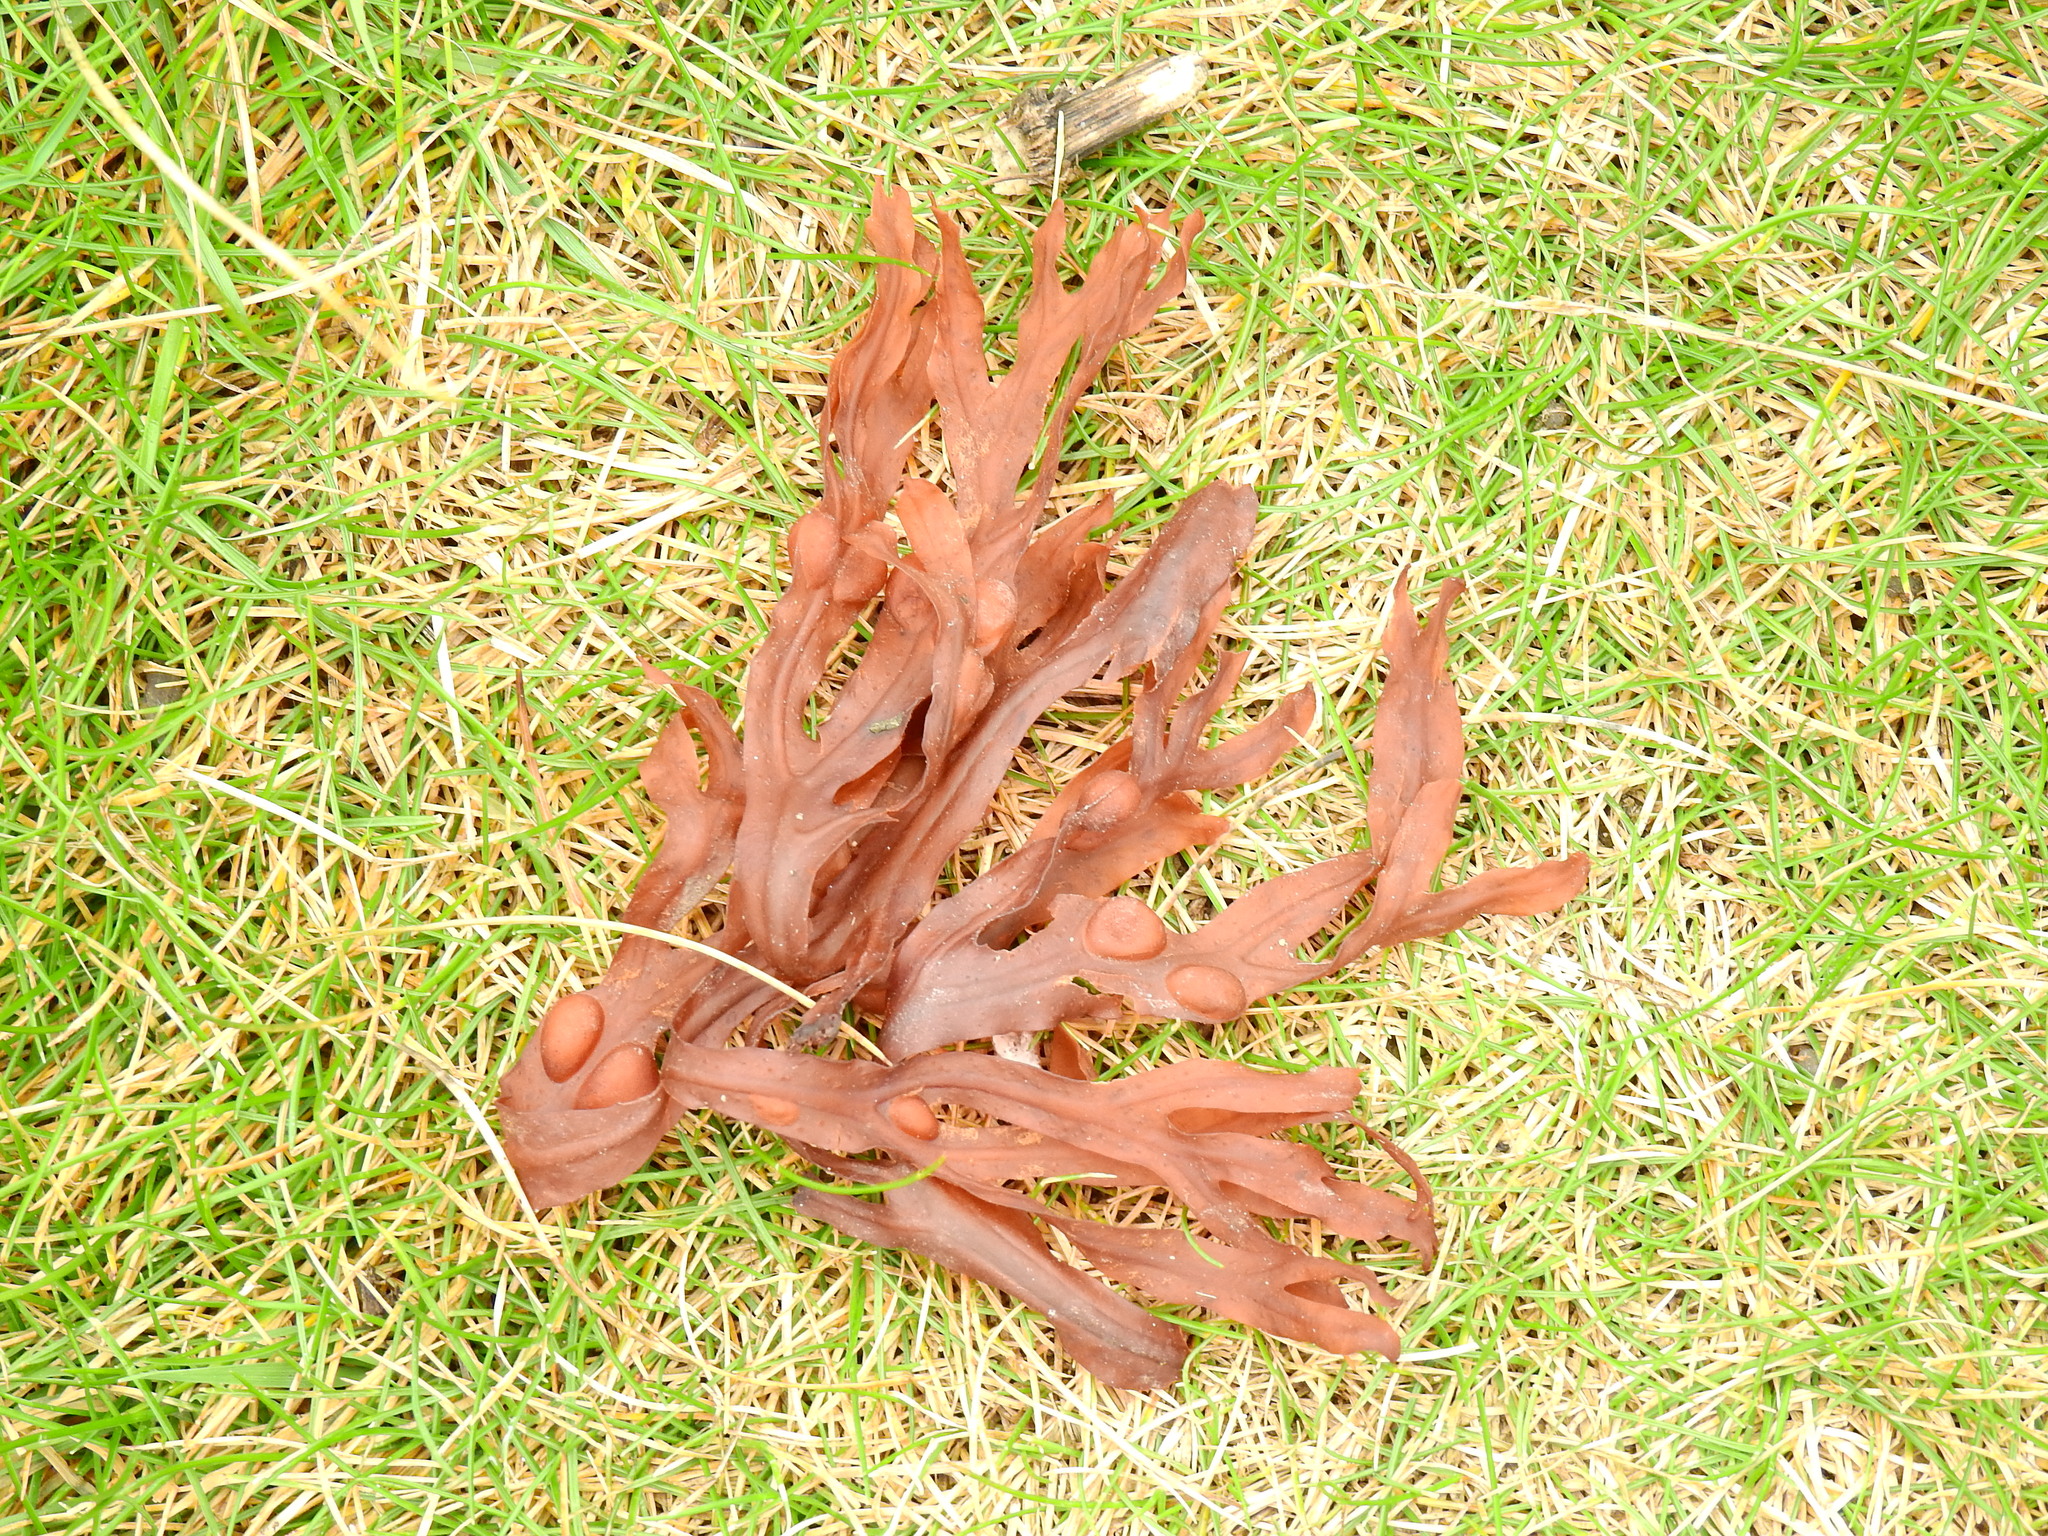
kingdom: Chromista
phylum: Ochrophyta
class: Phaeophyceae
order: Fucales
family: Fucaceae
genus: Fucus
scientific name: Fucus vesiculosus
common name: Bladder wrack
